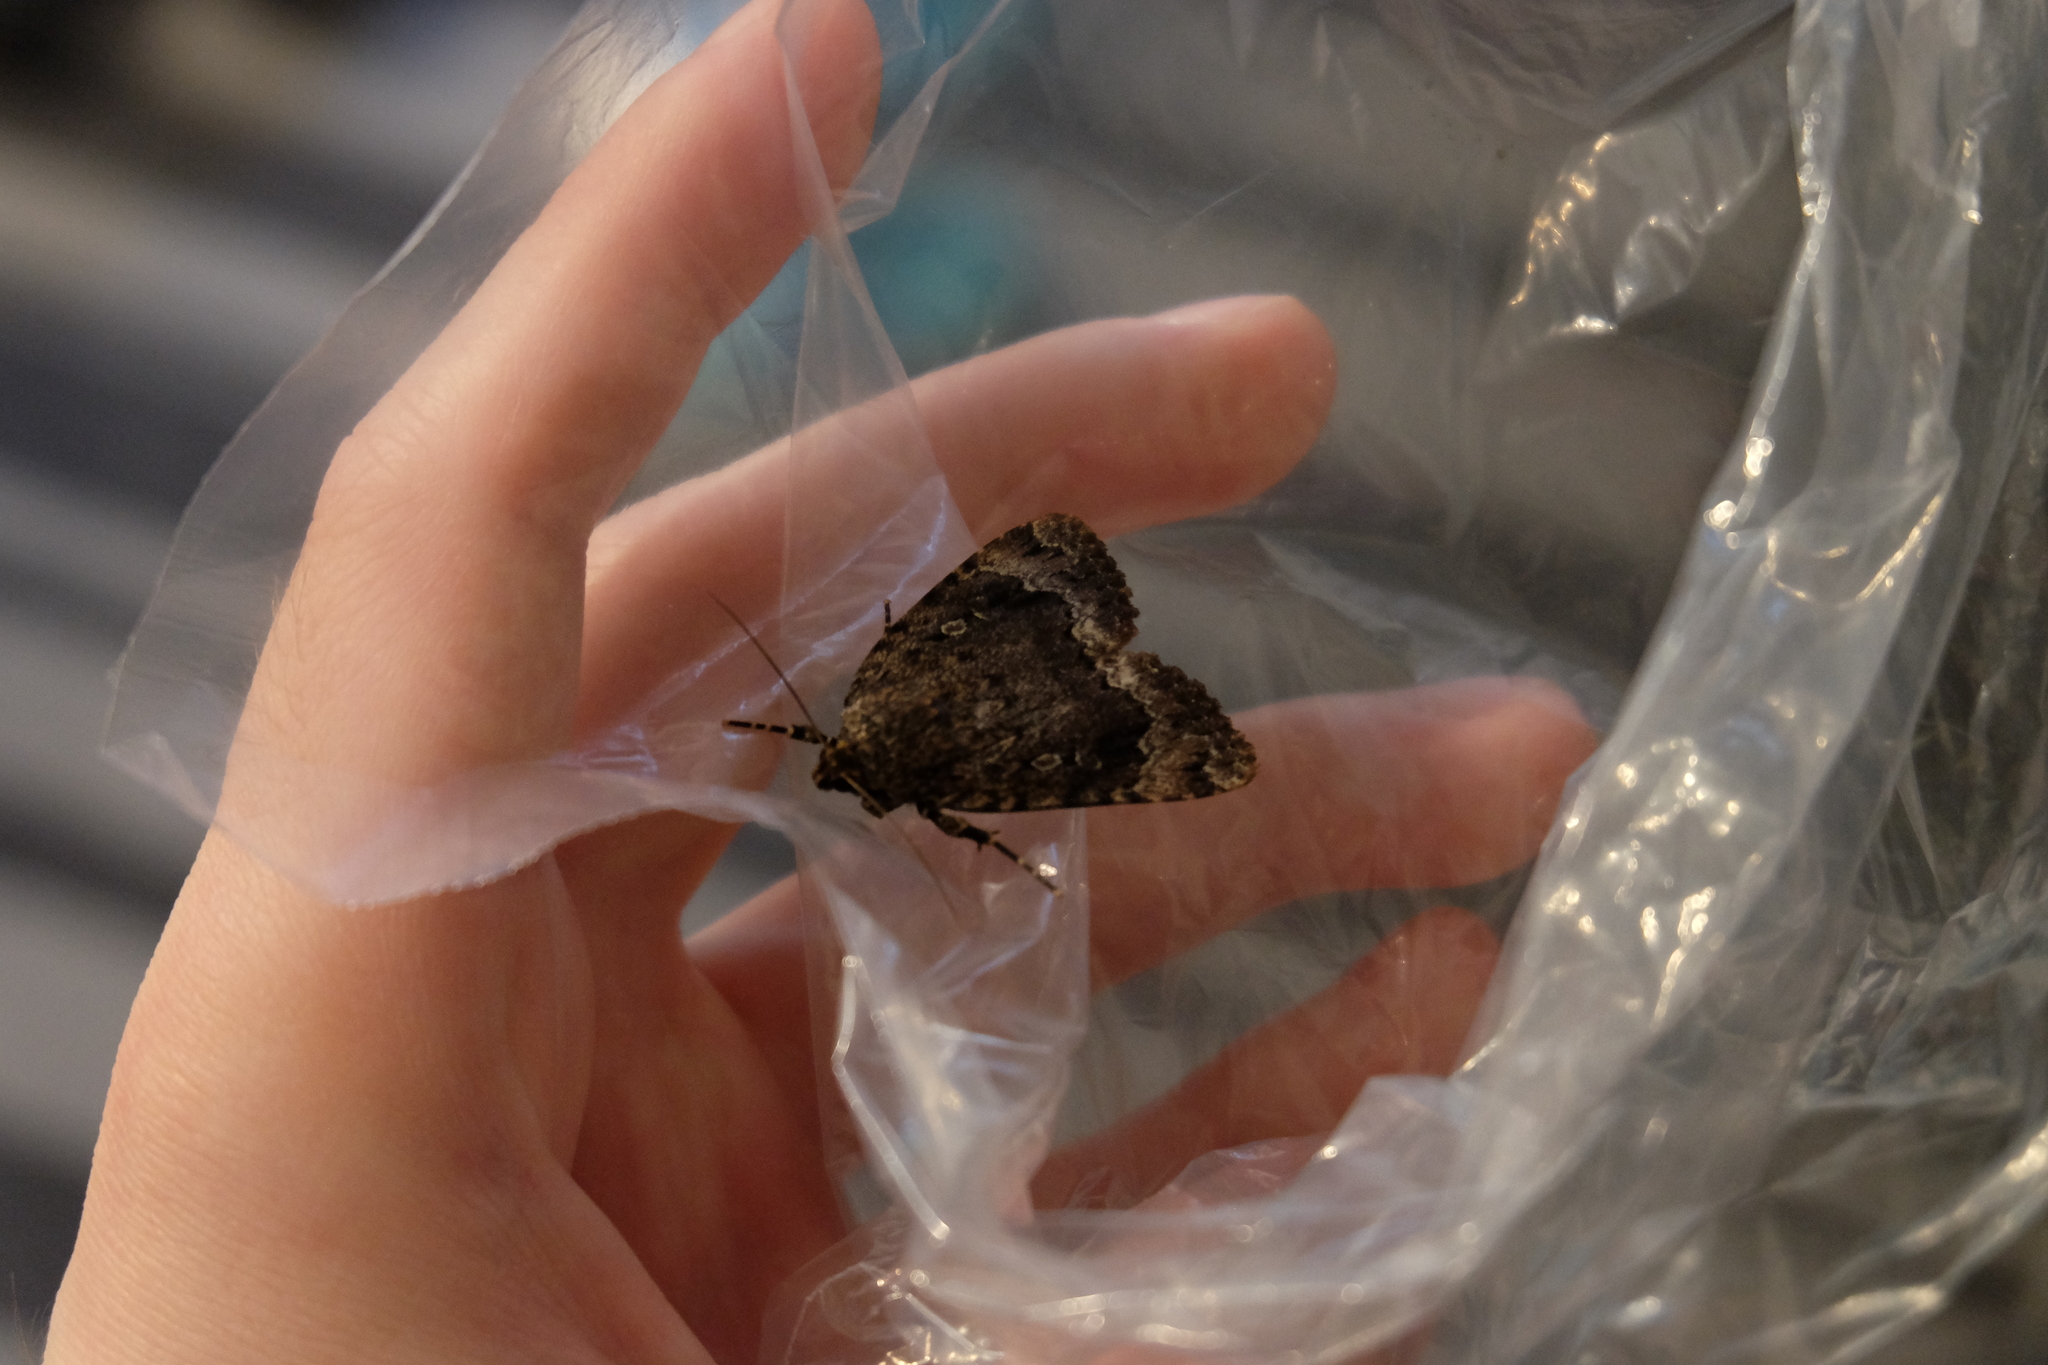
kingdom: Animalia
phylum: Arthropoda
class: Insecta
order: Lepidoptera
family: Noctuidae
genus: Amphipyra
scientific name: Amphipyra pyramidoides
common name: American copper underwing
